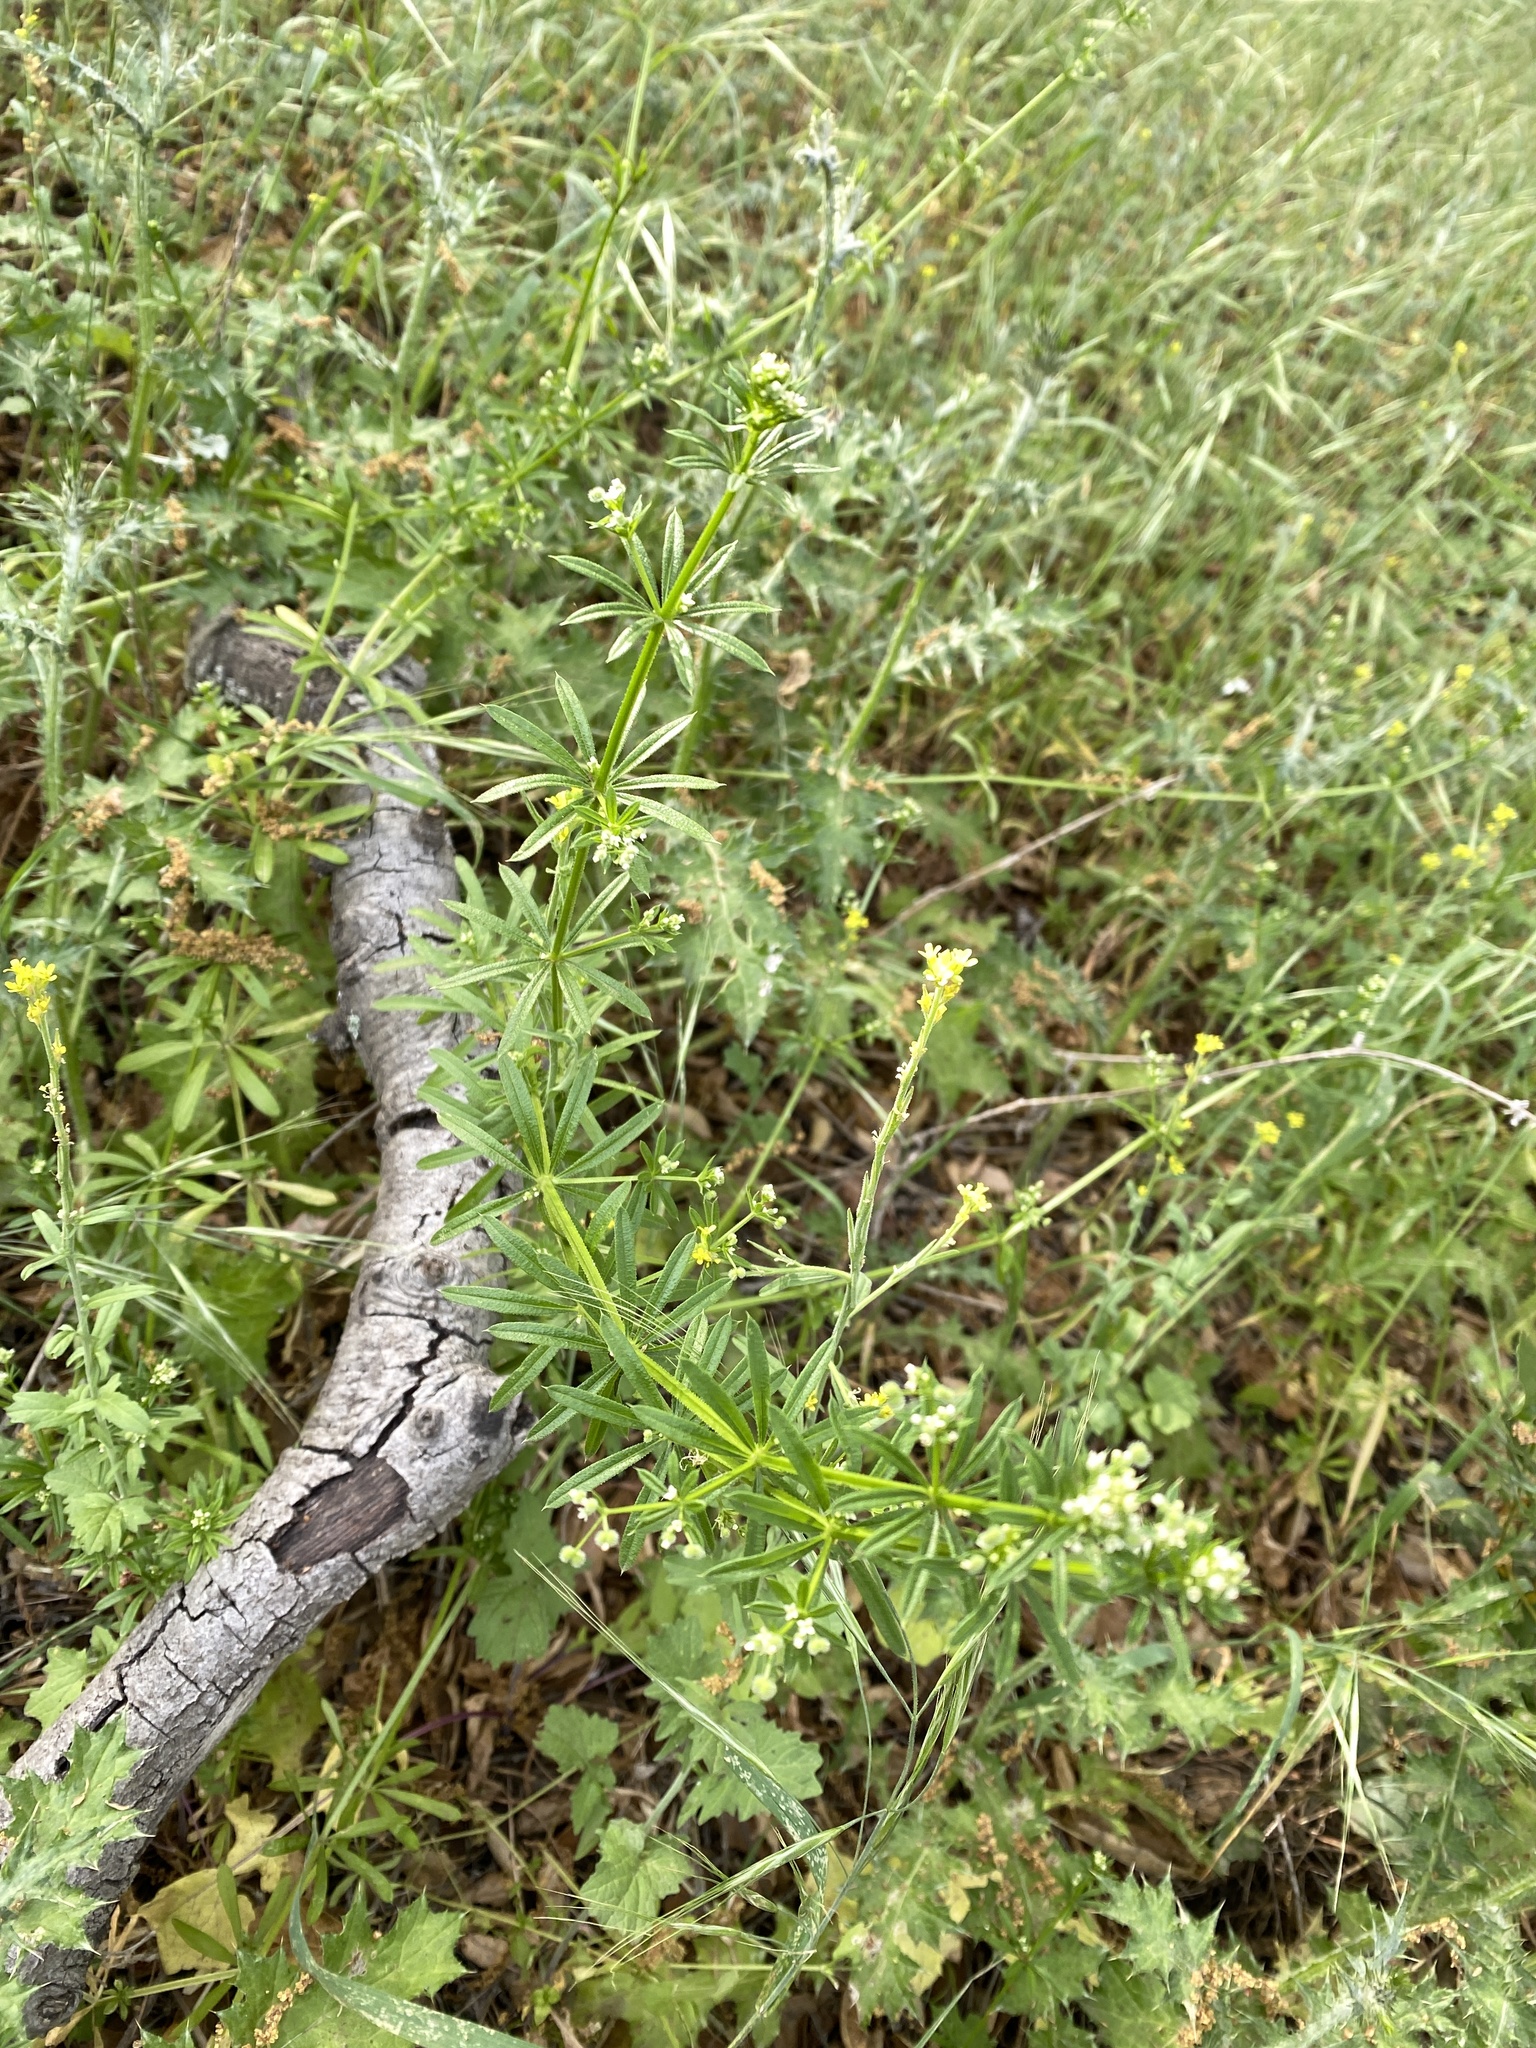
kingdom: Plantae
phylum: Tracheophyta
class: Magnoliopsida
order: Gentianales
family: Rubiaceae
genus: Galium
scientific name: Galium aparine
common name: Cleavers
